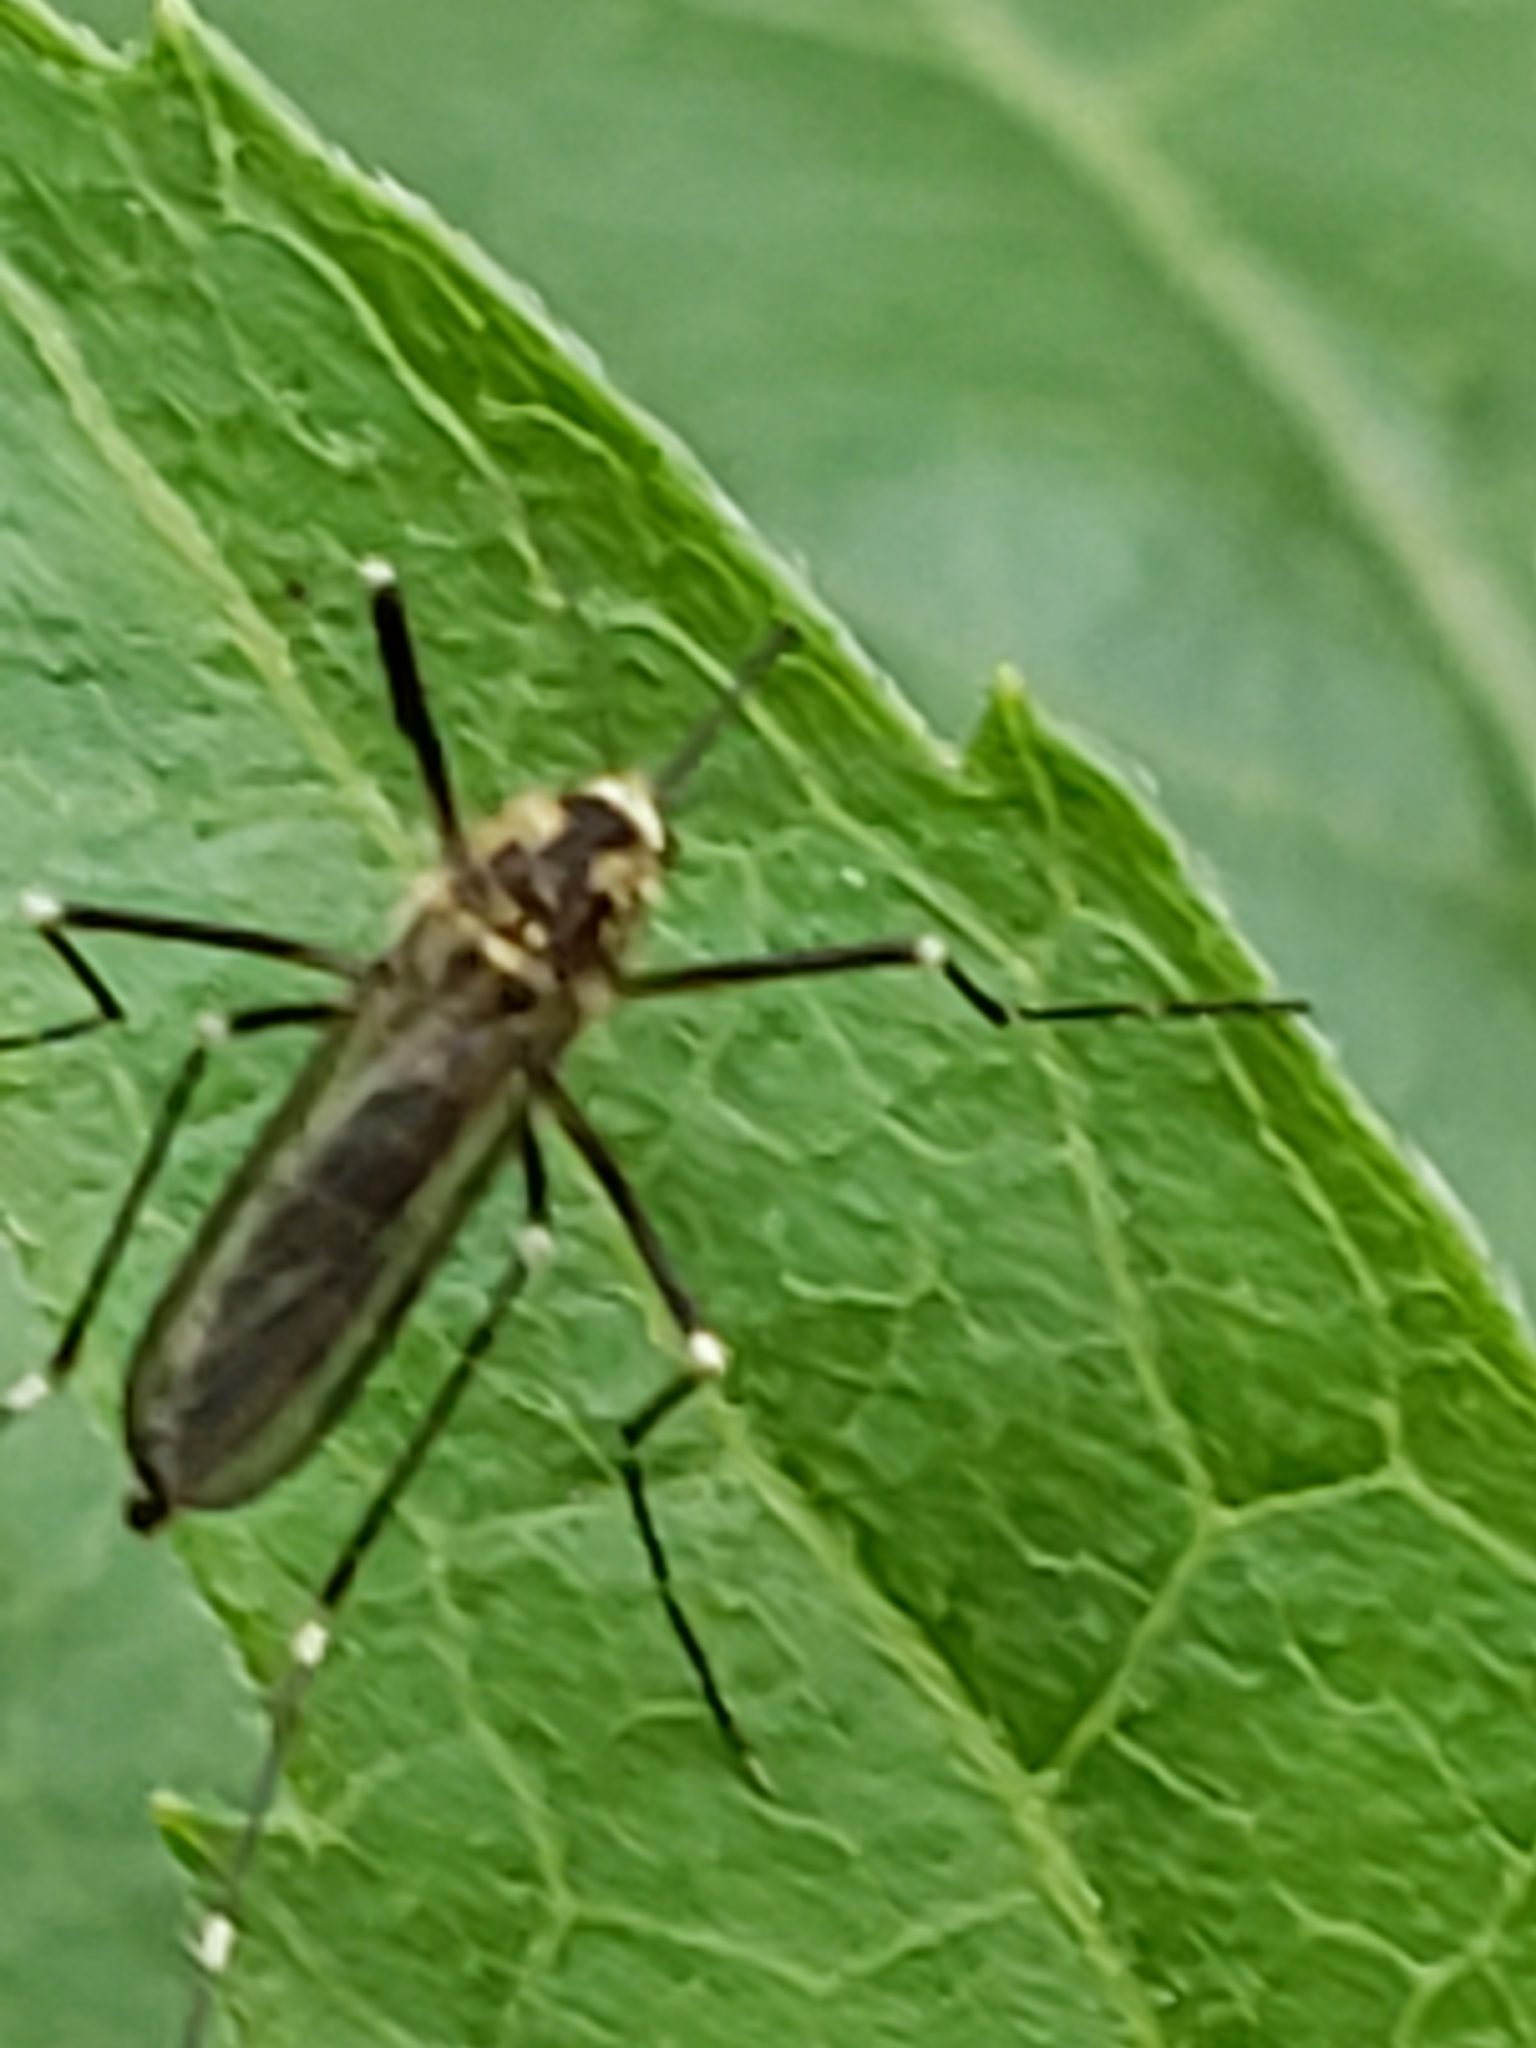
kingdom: Animalia
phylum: Arthropoda
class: Insecta
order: Diptera
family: Culicidae
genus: Aedes
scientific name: Aedes atropalpus
